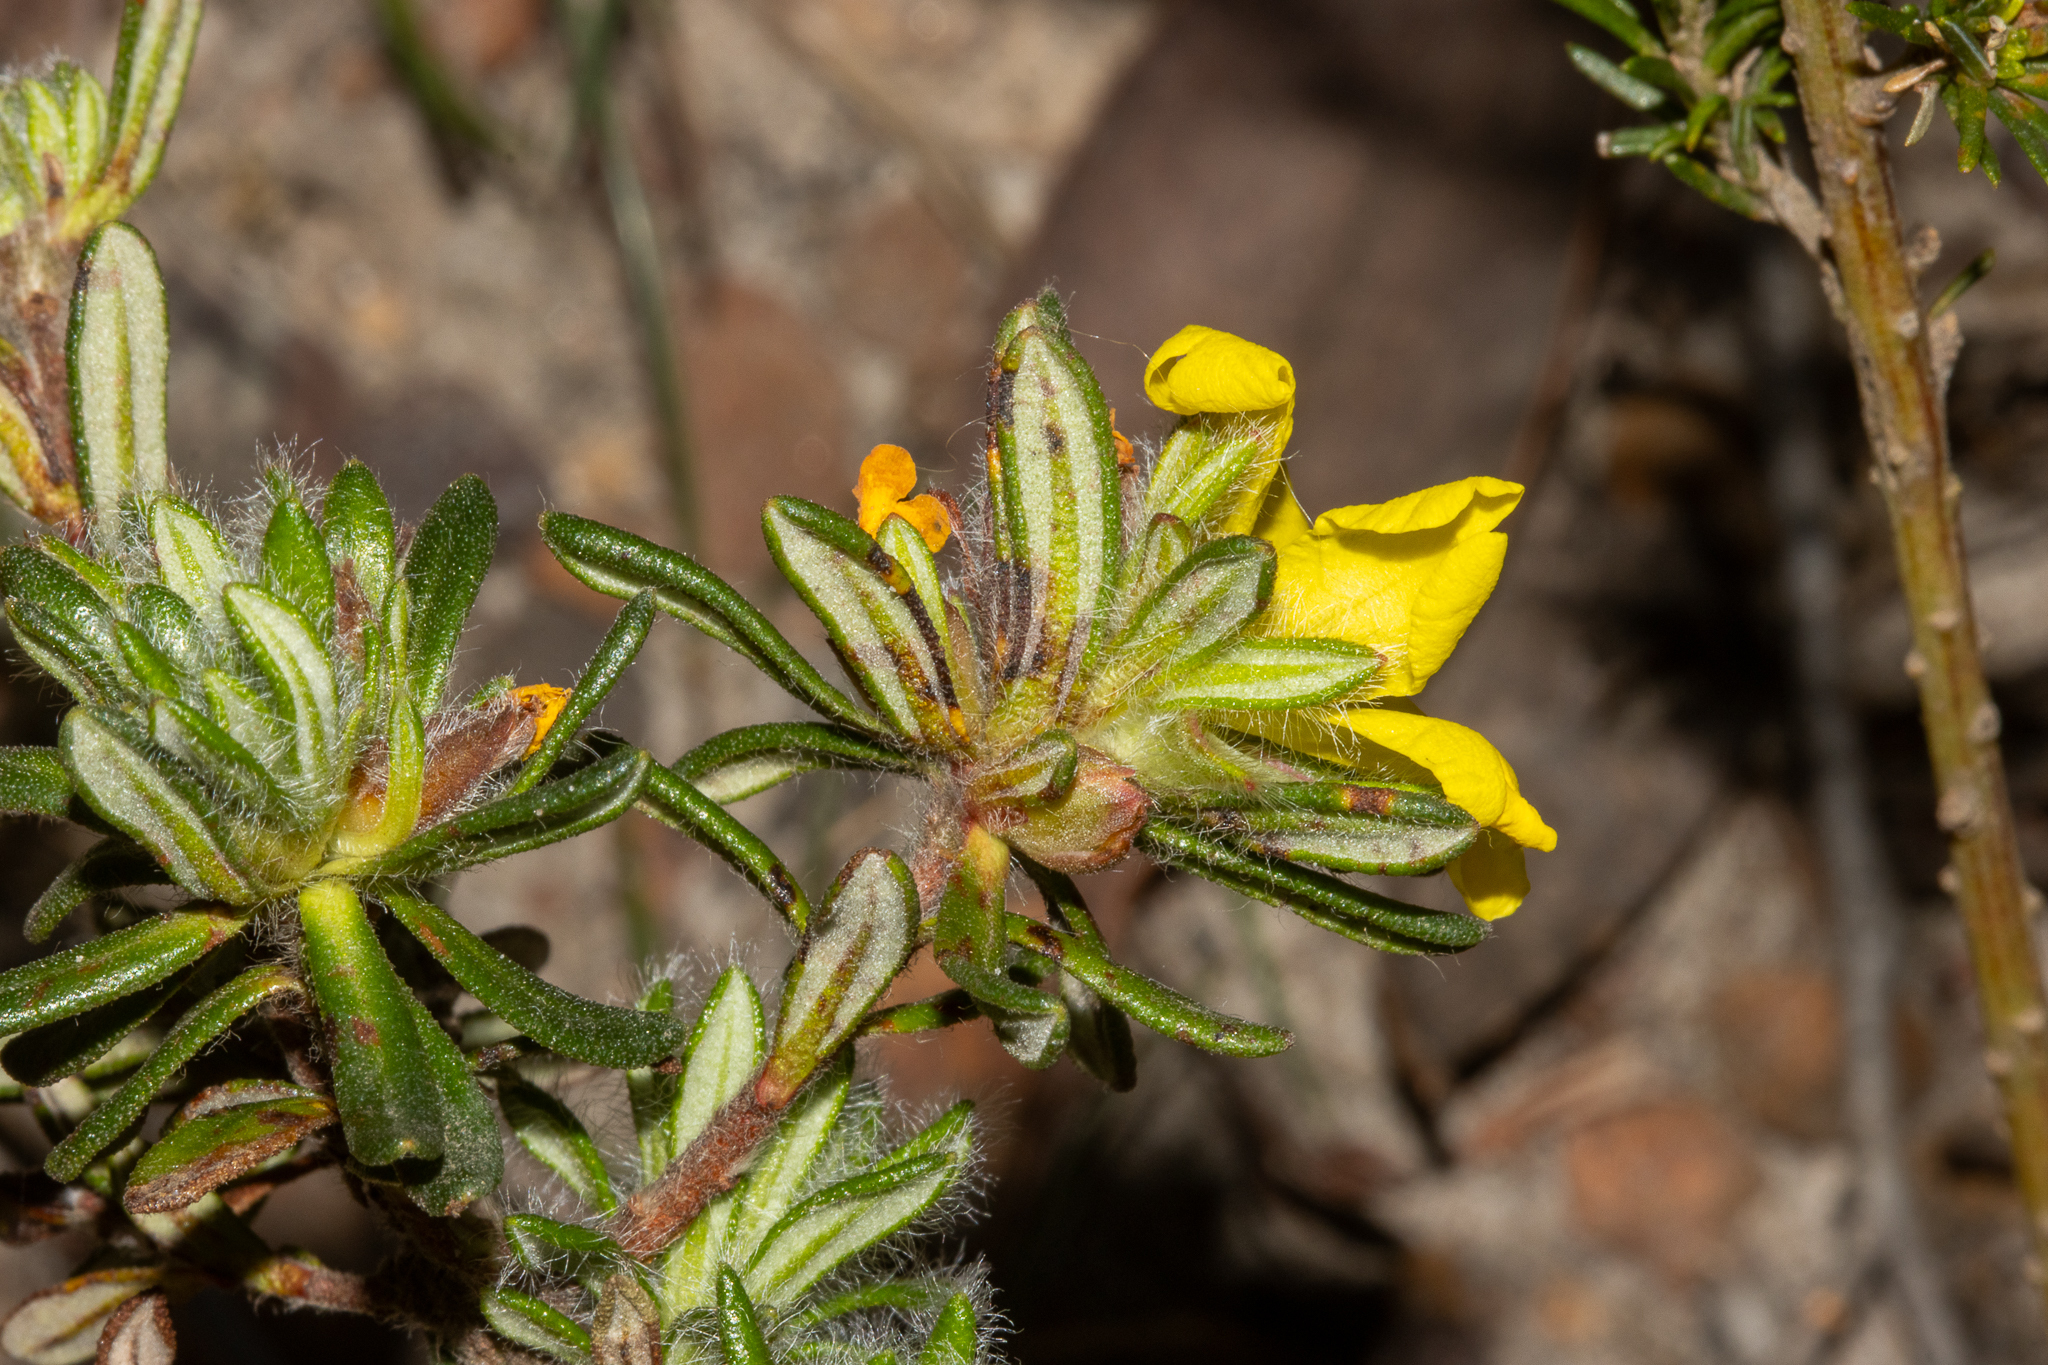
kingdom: Plantae
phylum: Tracheophyta
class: Magnoliopsida
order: Dilleniales
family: Dilleniaceae
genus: Hibbertia
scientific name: Hibbertia villifera
